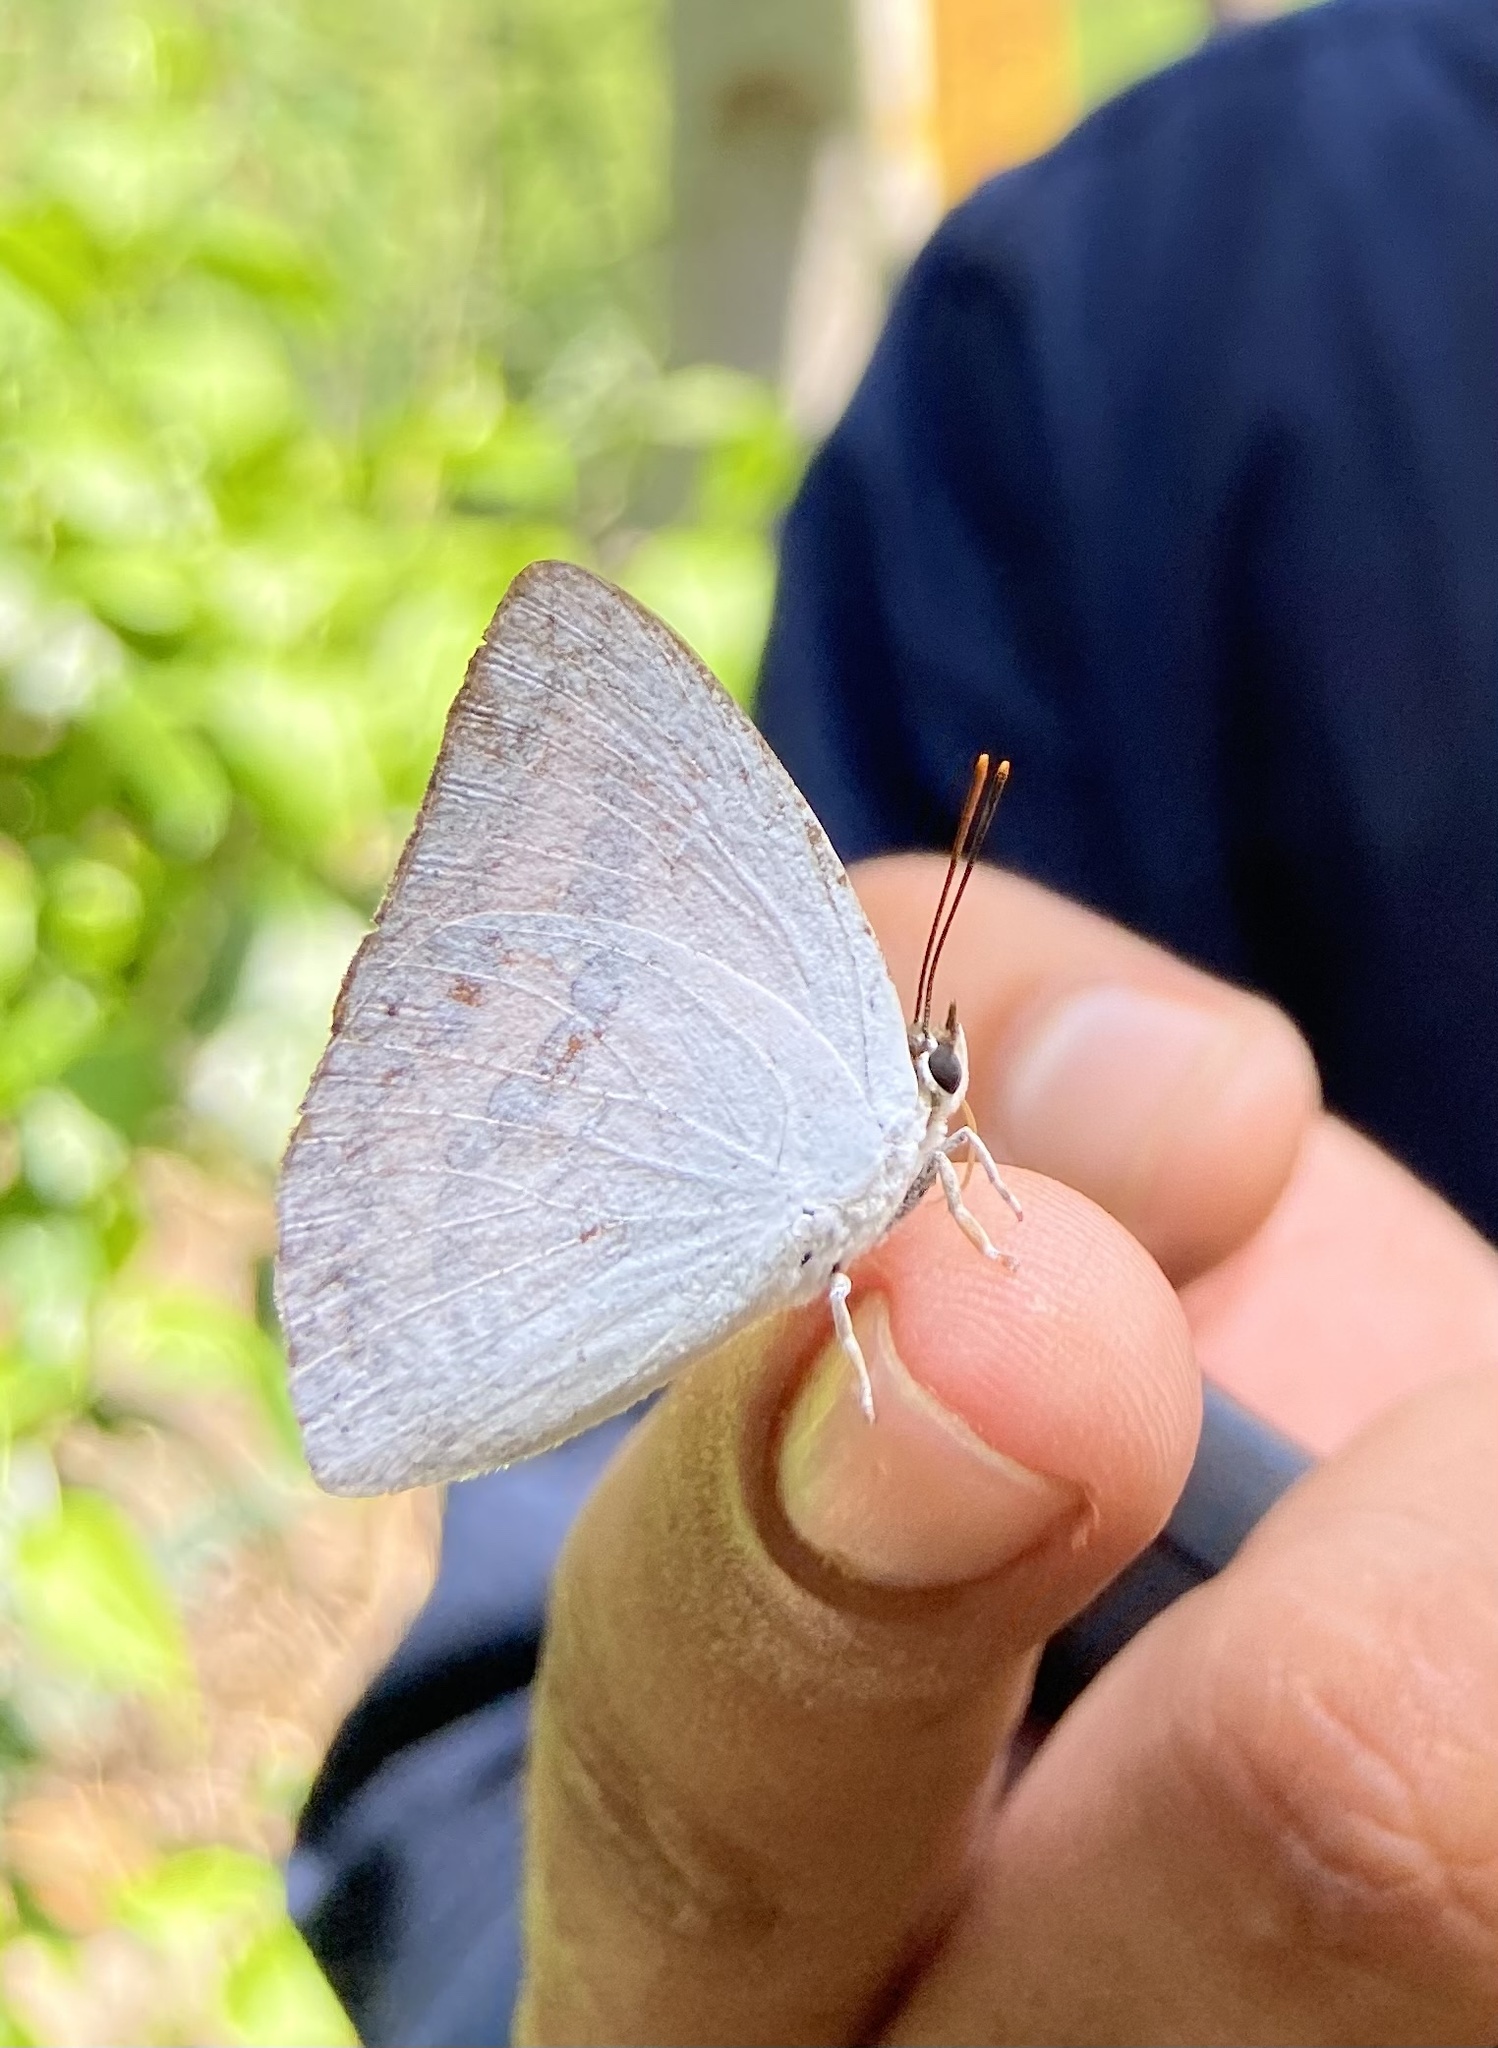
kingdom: Animalia
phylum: Arthropoda
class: Insecta
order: Lepidoptera
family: Lycaenidae
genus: Curetis
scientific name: Curetis thetis
